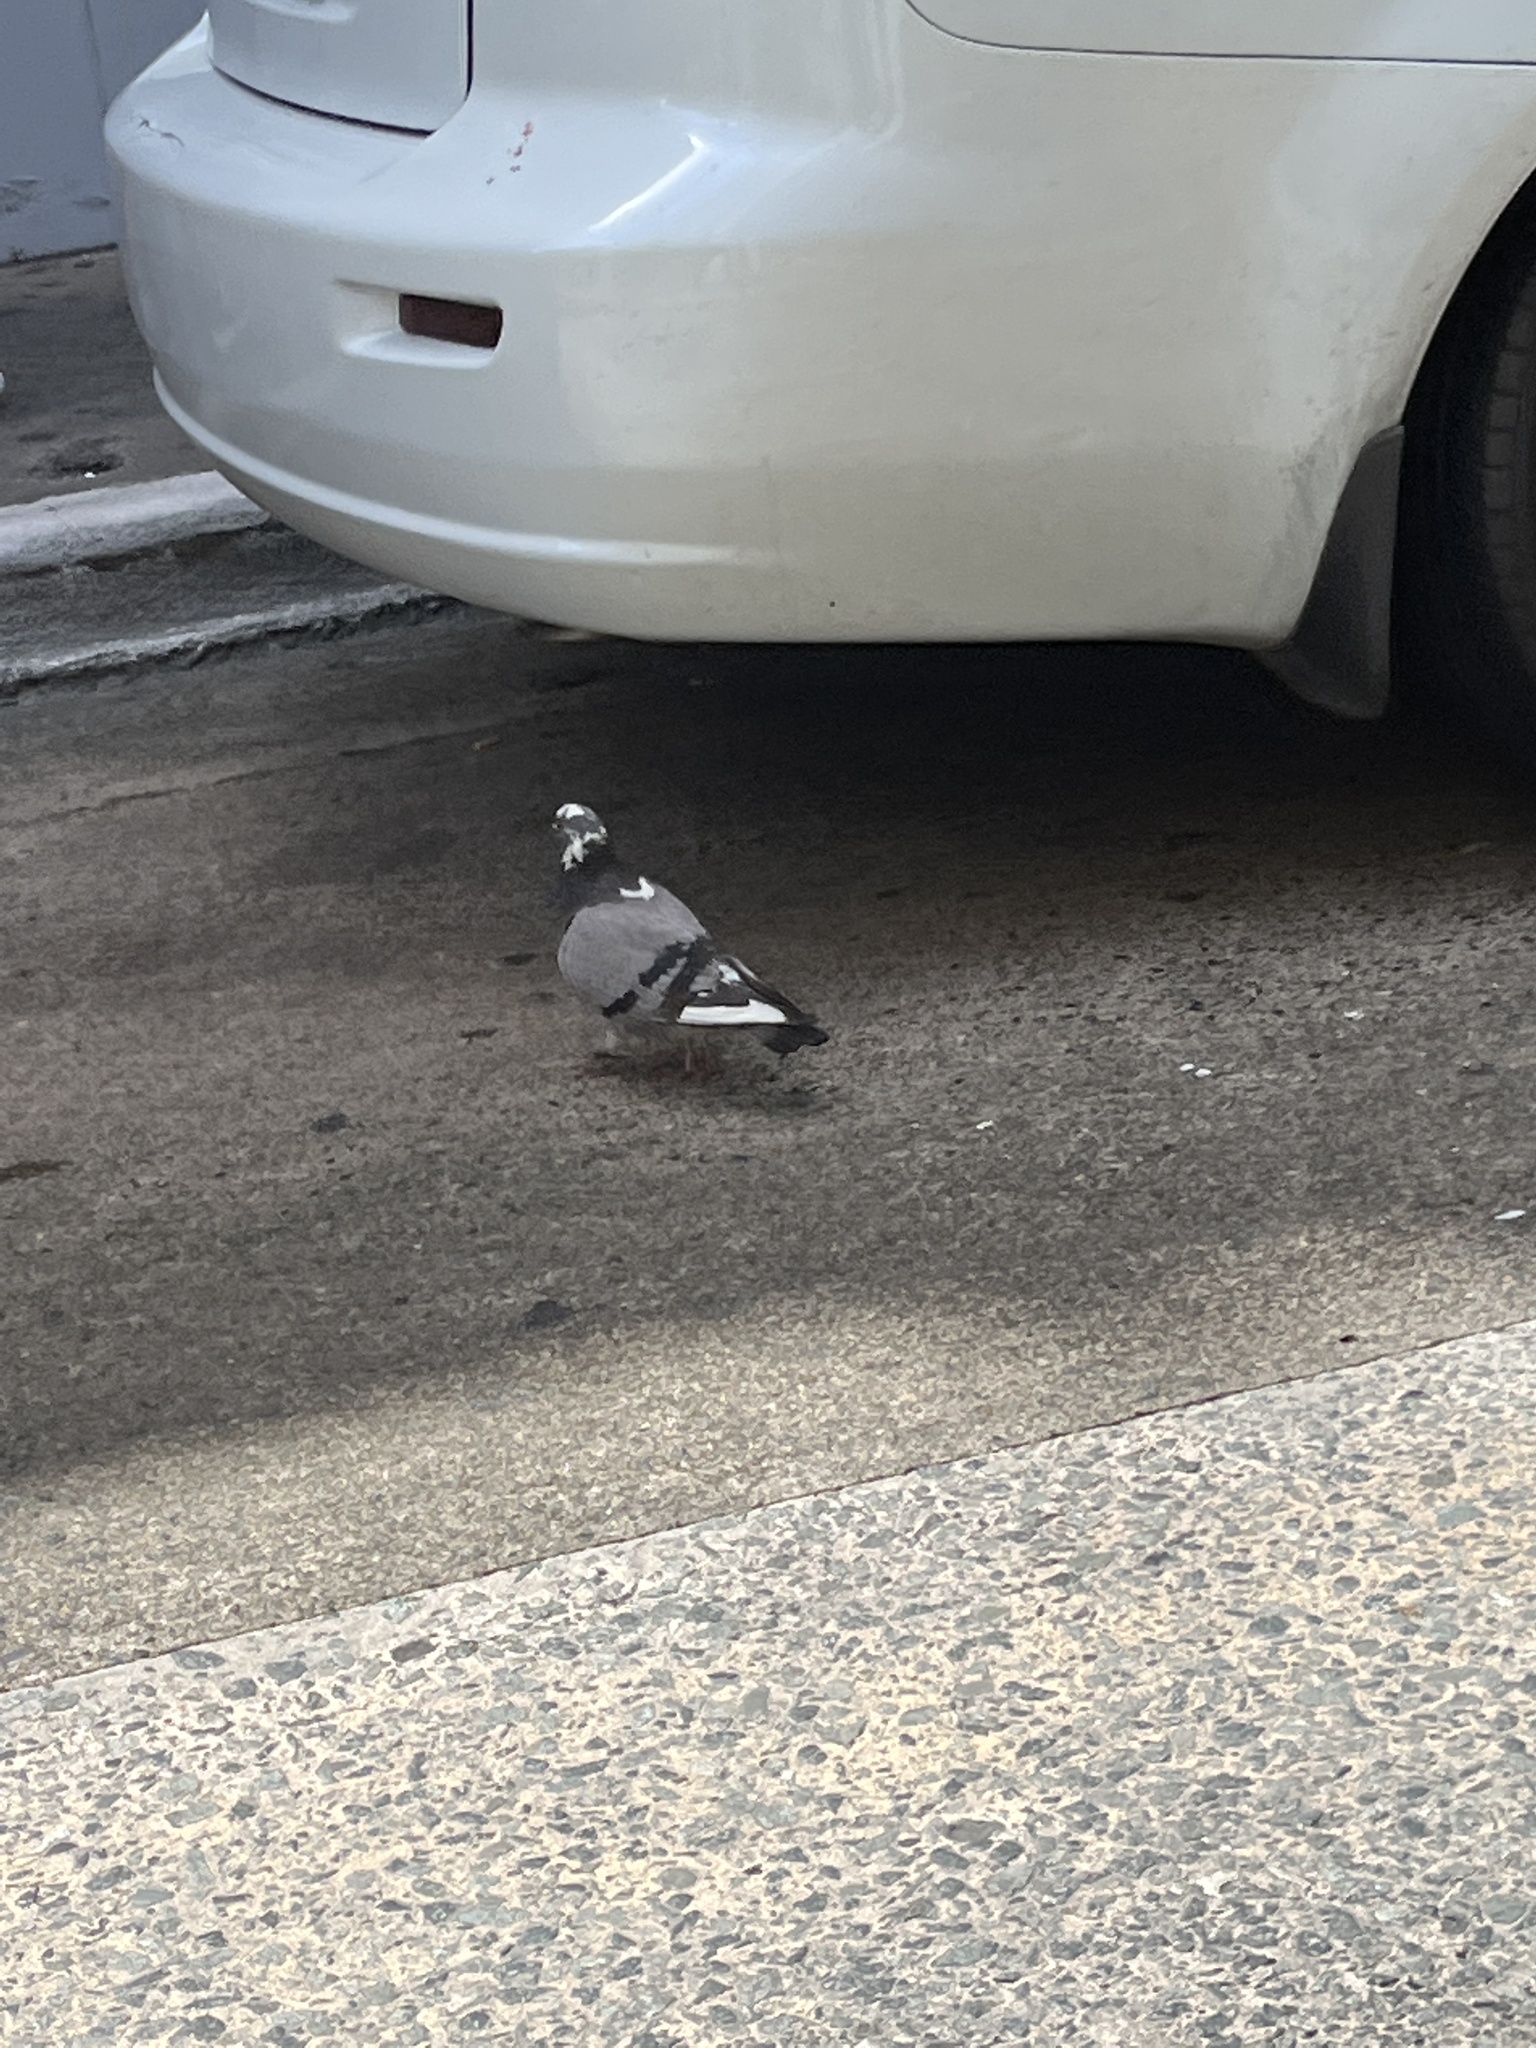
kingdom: Animalia
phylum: Chordata
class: Aves
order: Columbiformes
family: Columbidae
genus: Columba
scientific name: Columba livia
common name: Rock pigeon
